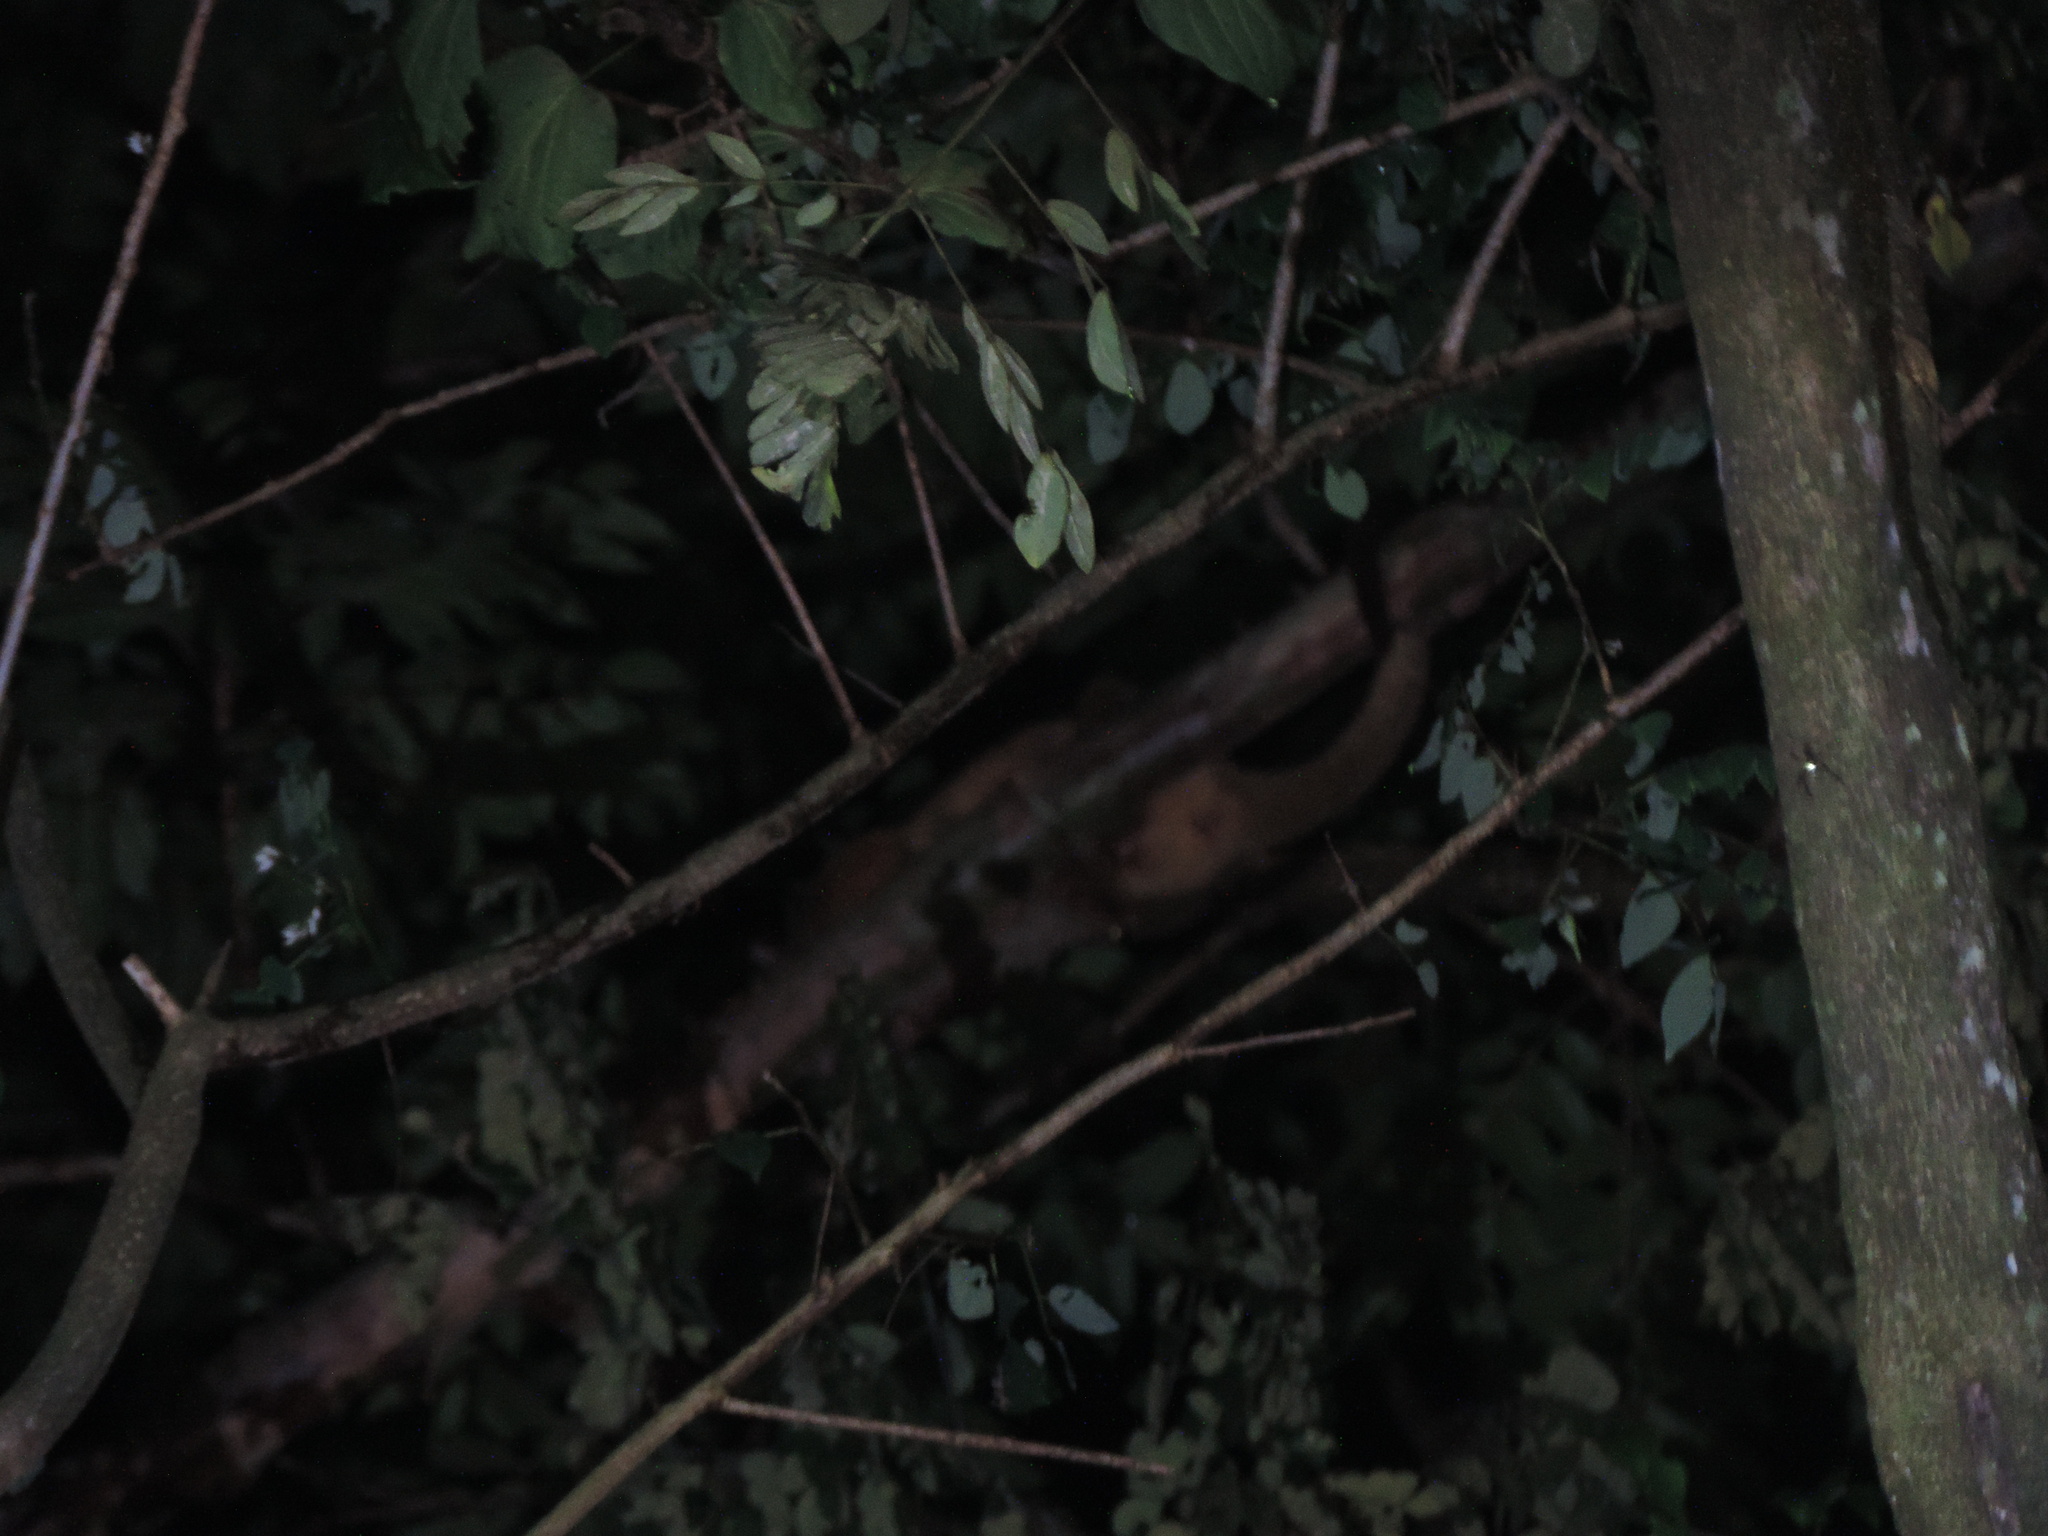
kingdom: Animalia
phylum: Chordata
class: Mammalia
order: Carnivora
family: Procyonidae
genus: Potos
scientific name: Potos flavus
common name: Kinkajou
